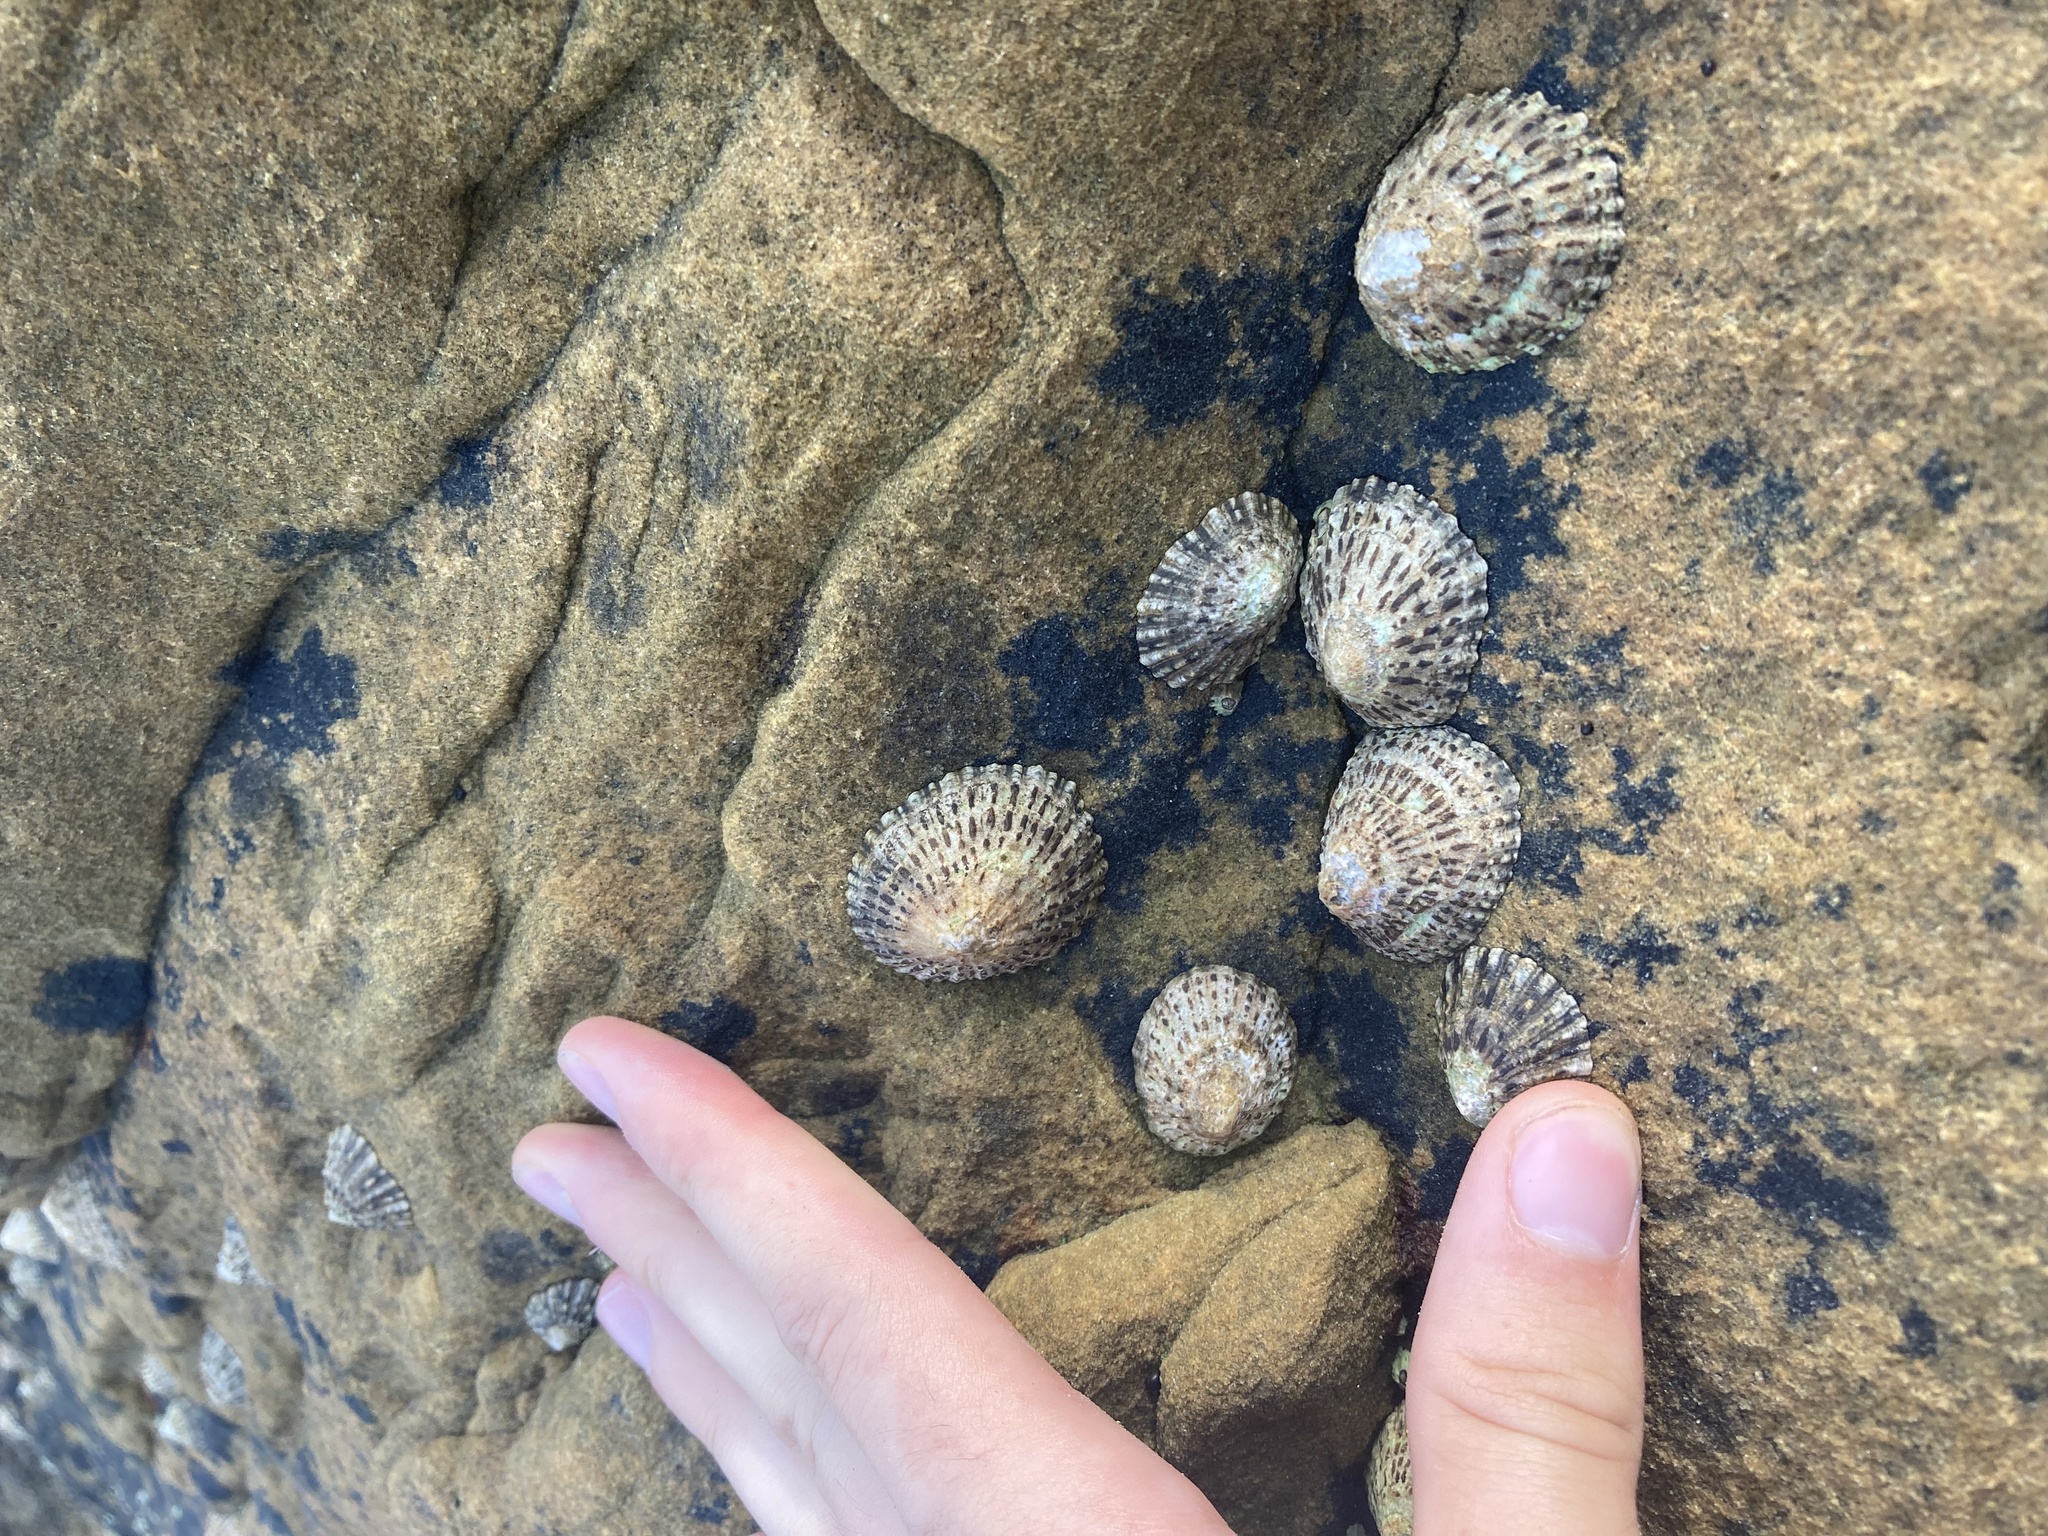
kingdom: Animalia
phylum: Mollusca
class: Gastropoda
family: Patellidae
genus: Patella
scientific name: Patella vulgata
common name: Common limpet
